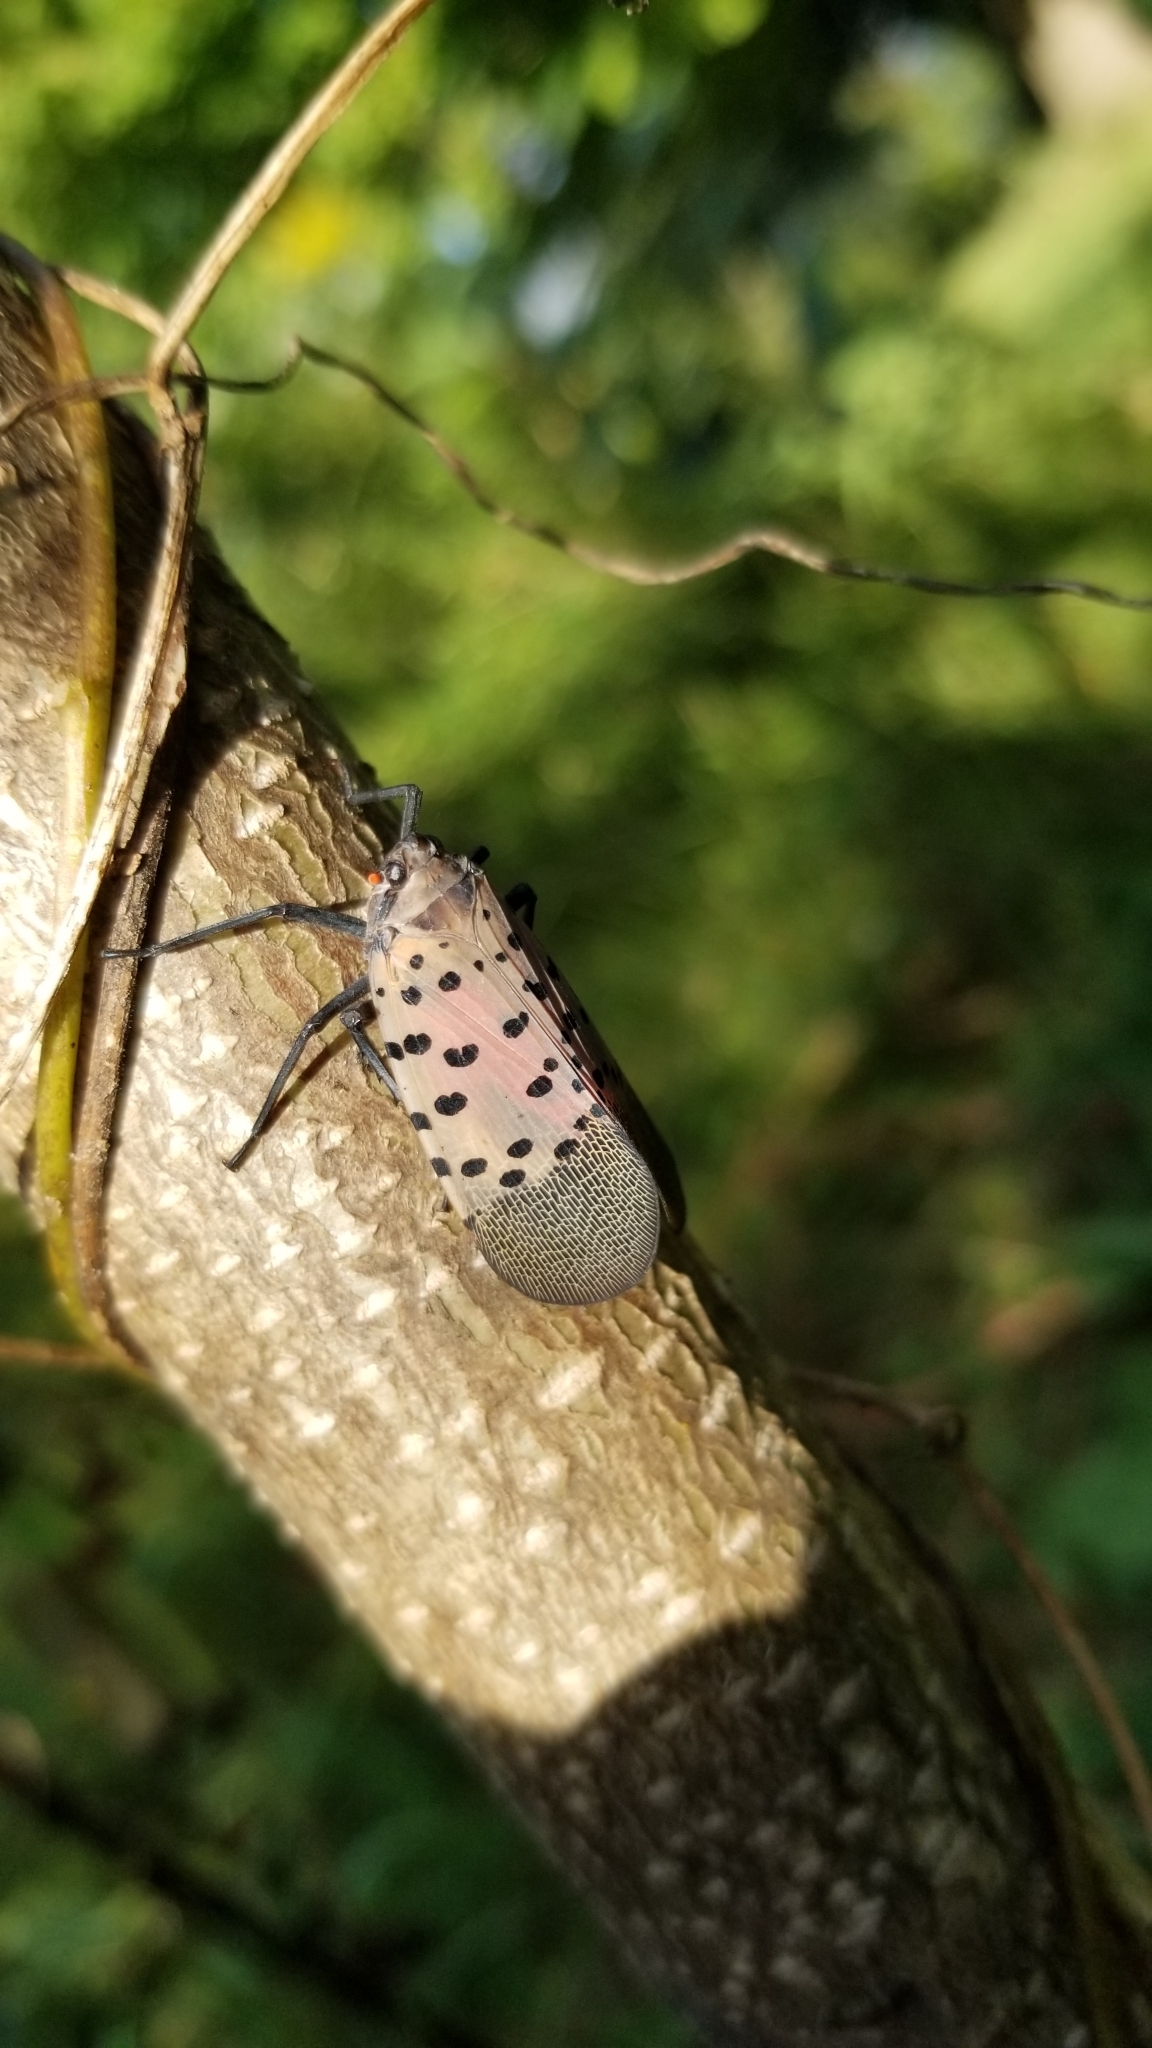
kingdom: Animalia
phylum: Arthropoda
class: Insecta
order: Hemiptera
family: Fulgoridae
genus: Lycorma
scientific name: Lycorma delicatula
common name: Spotted lanternfly
